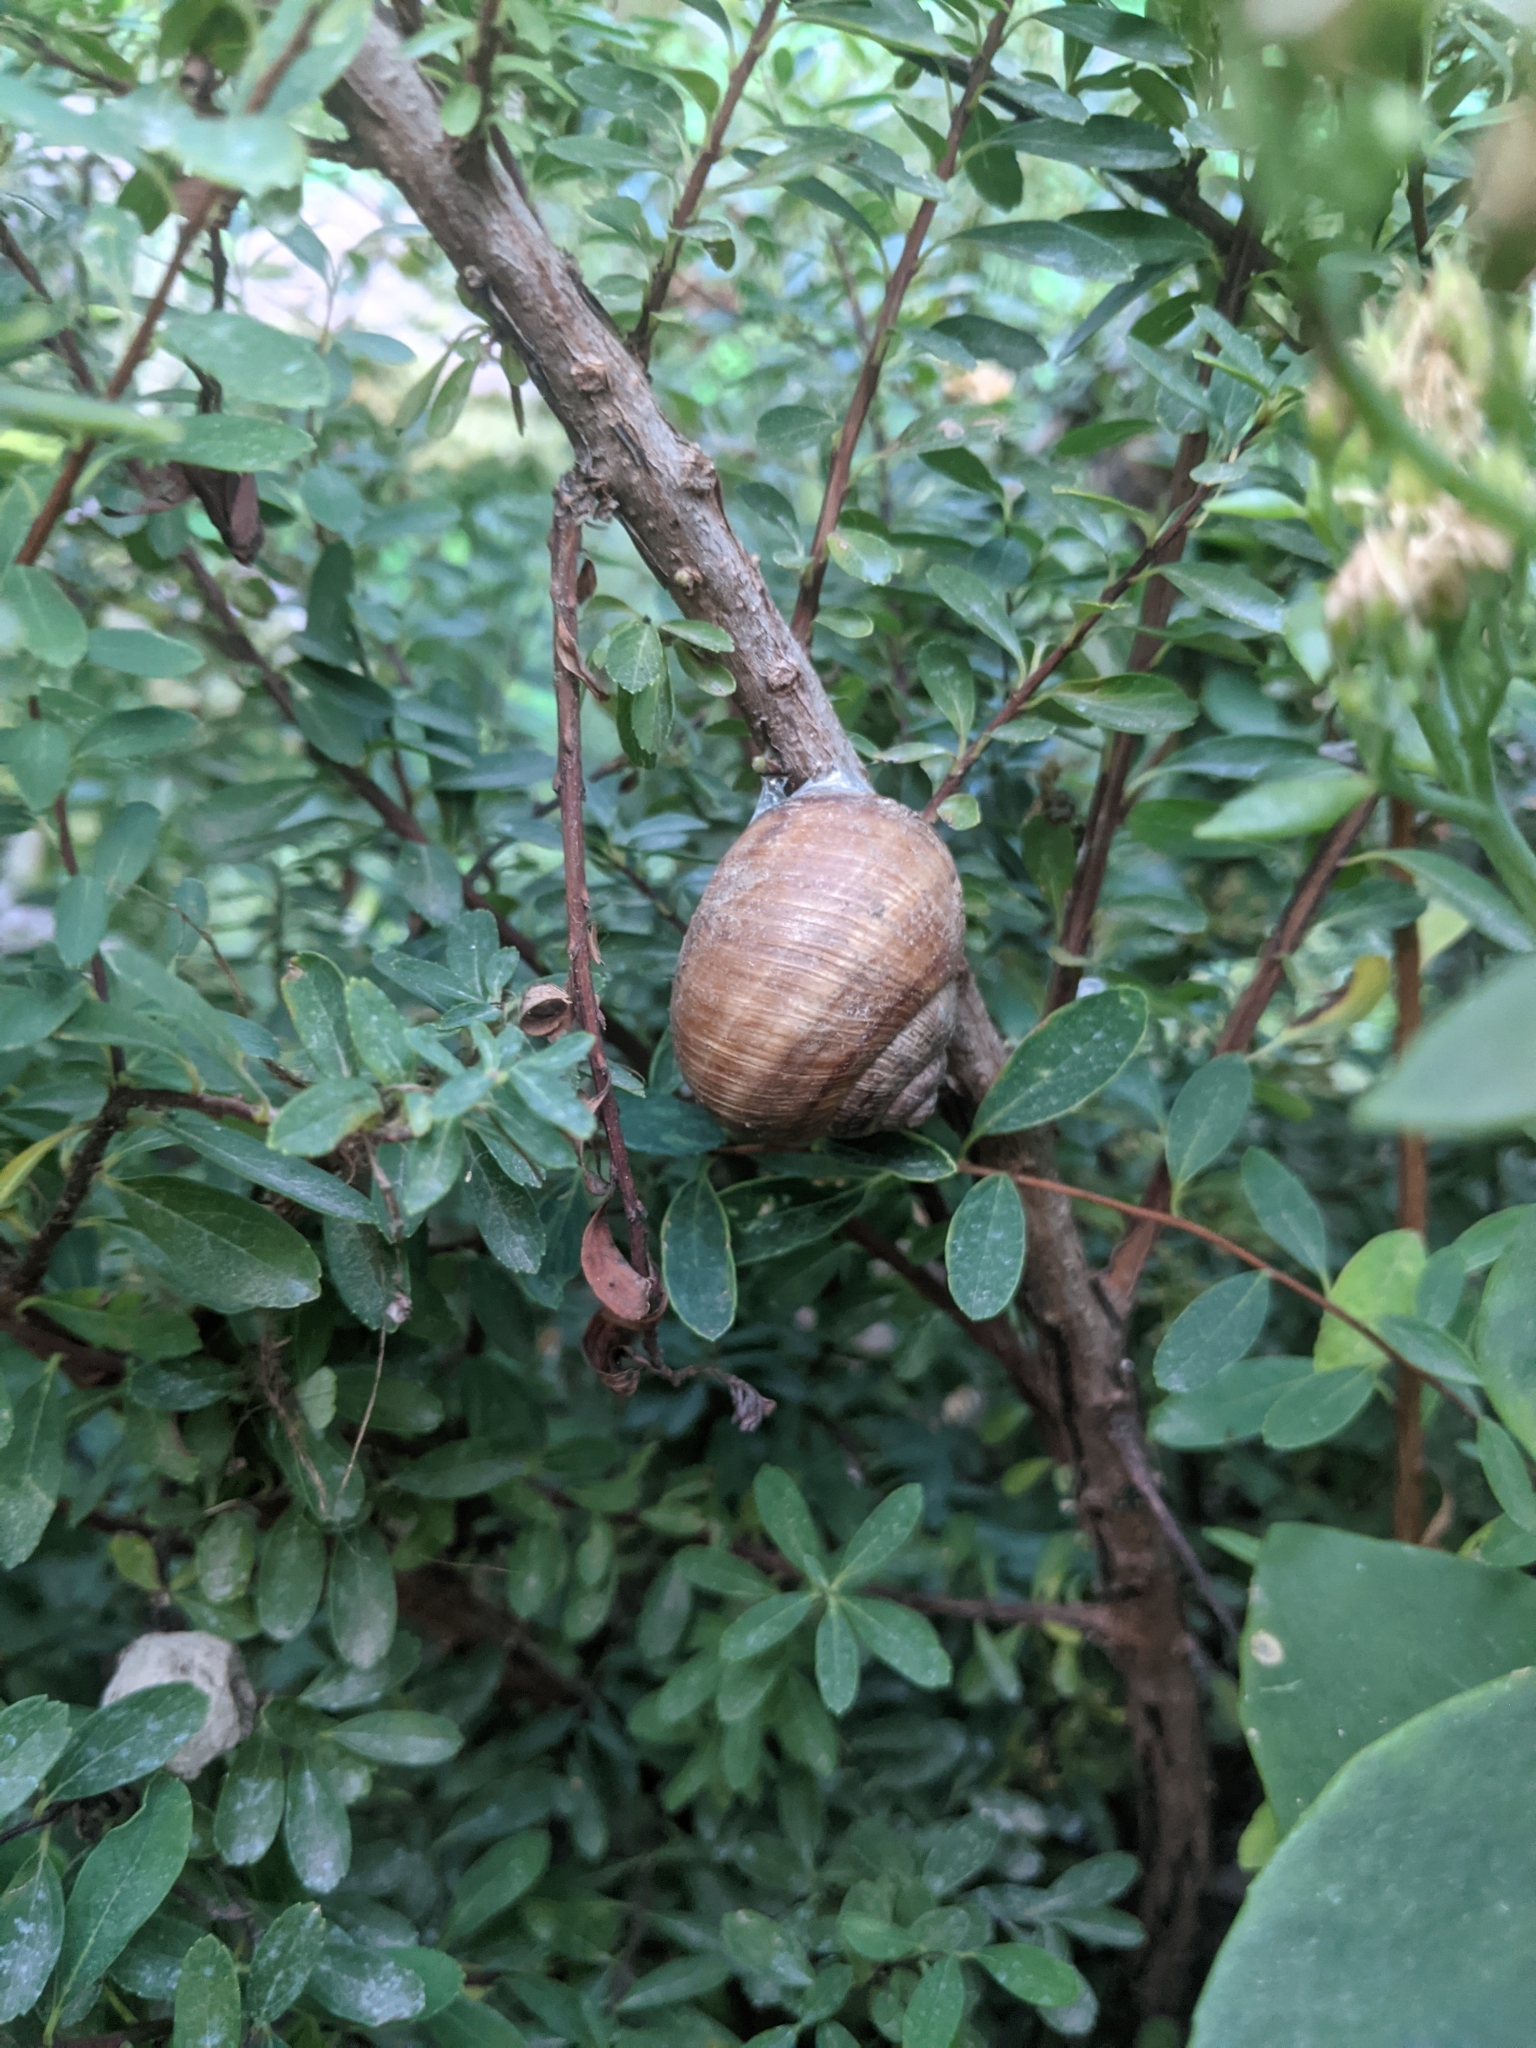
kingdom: Animalia
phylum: Mollusca
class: Gastropoda
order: Stylommatophora
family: Helicidae
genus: Helix
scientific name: Helix pomatia
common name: Roman snail
